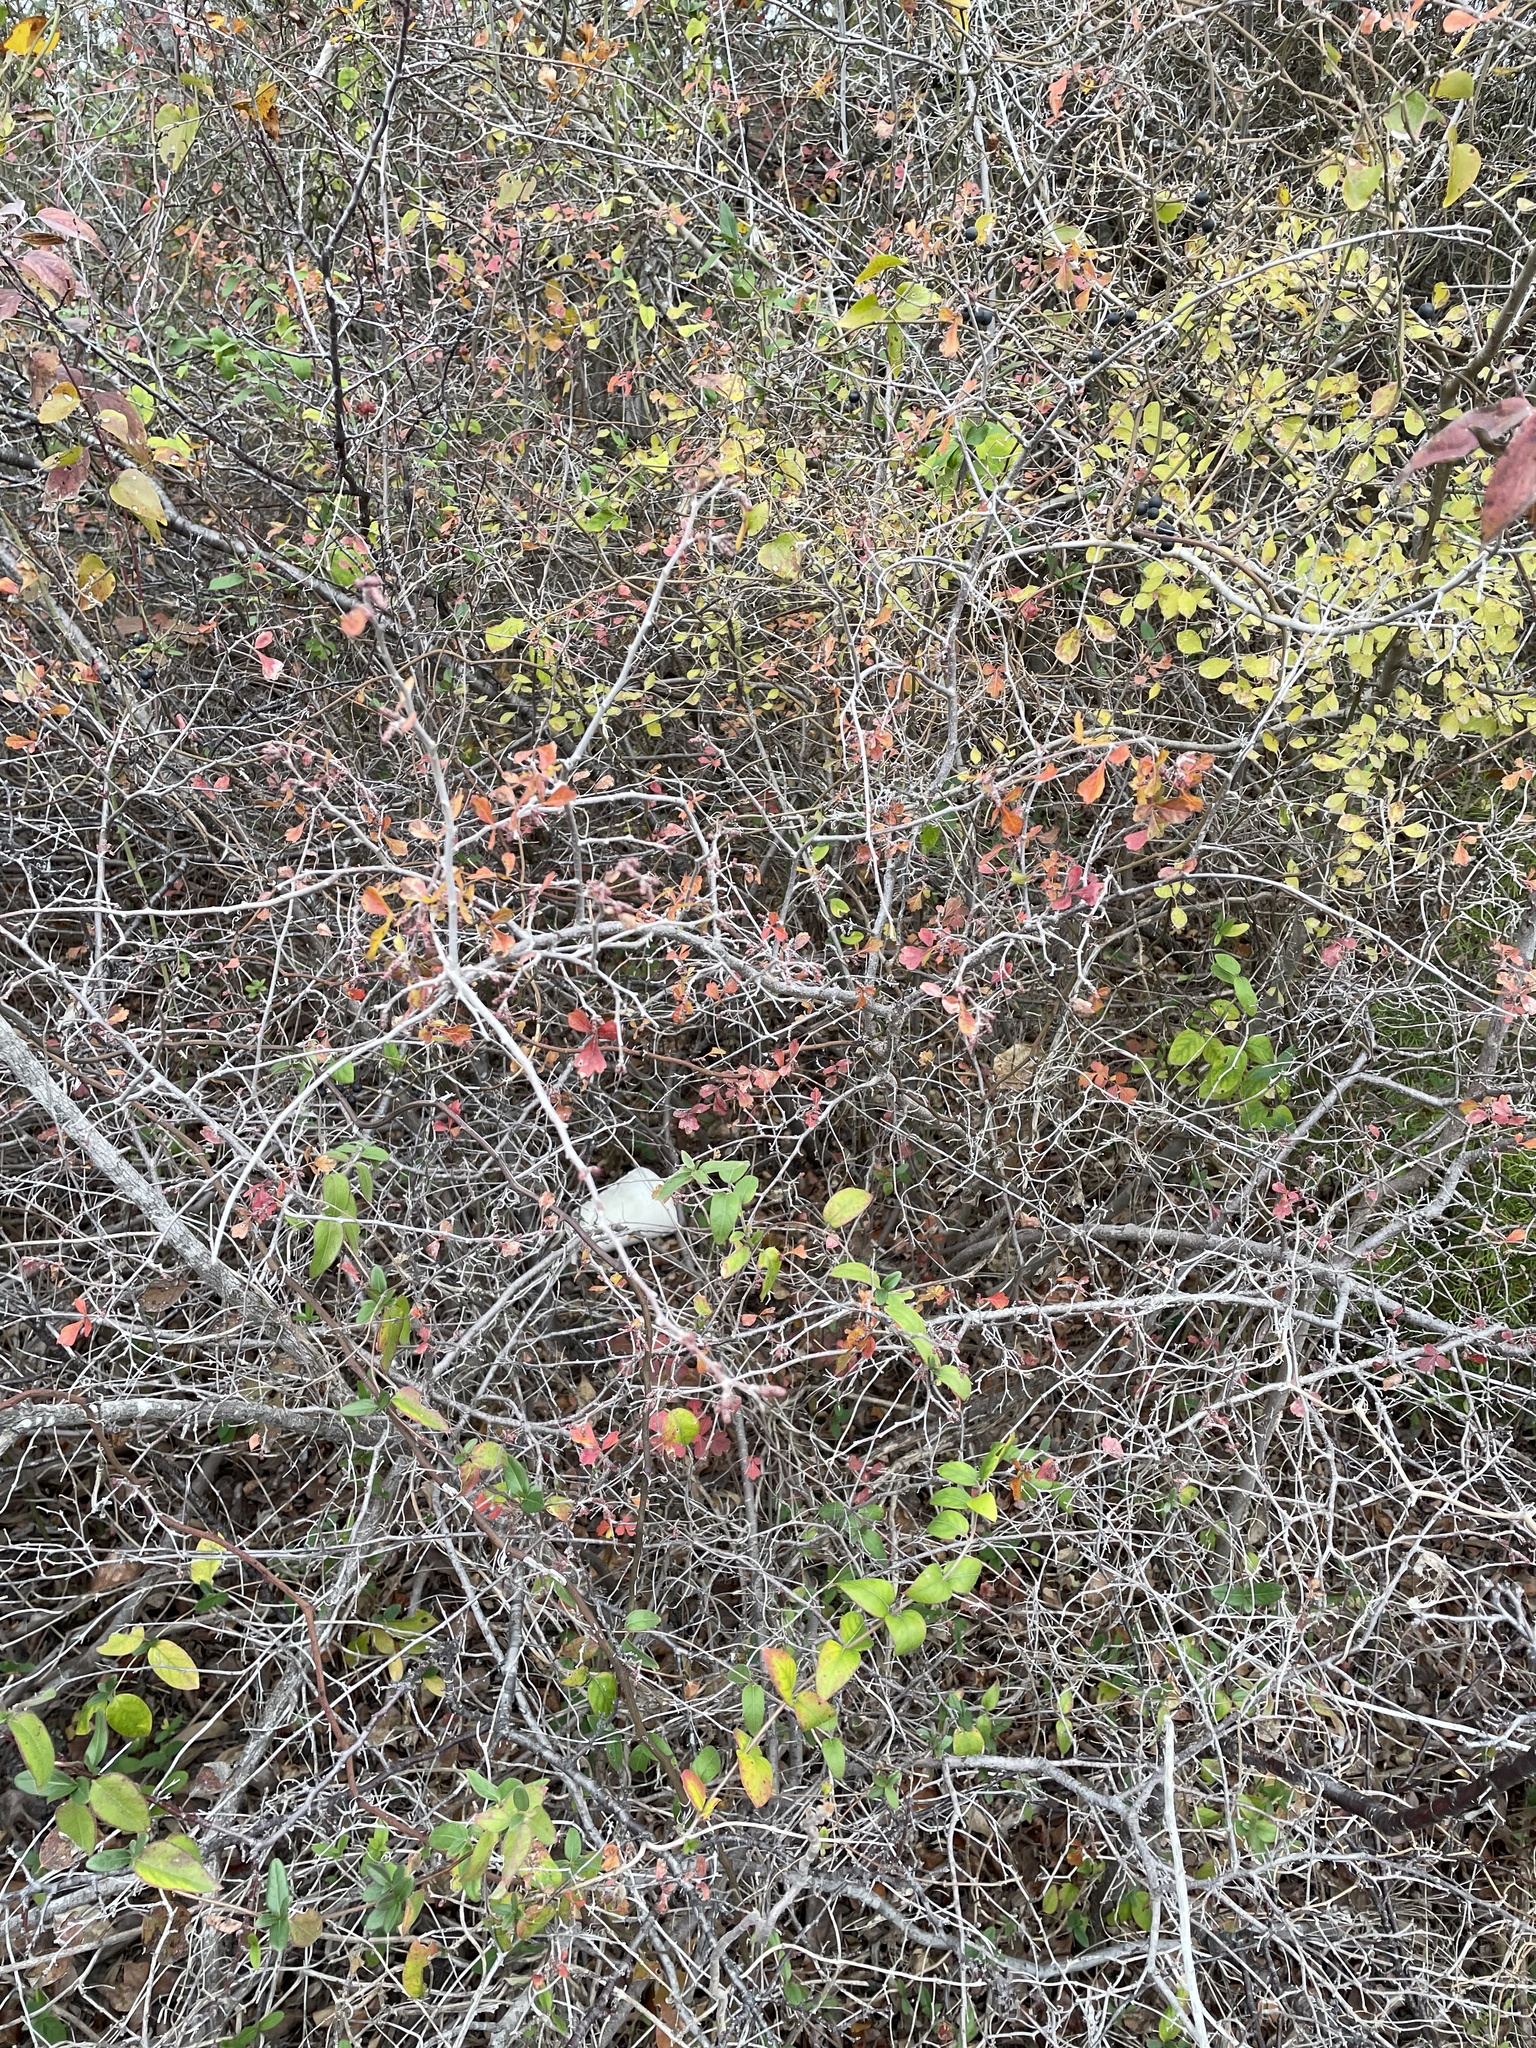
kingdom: Plantae
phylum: Tracheophyta
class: Magnoliopsida
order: Sapindales
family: Anacardiaceae
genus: Rhus
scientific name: Rhus aromatica
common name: Aromatic sumac
